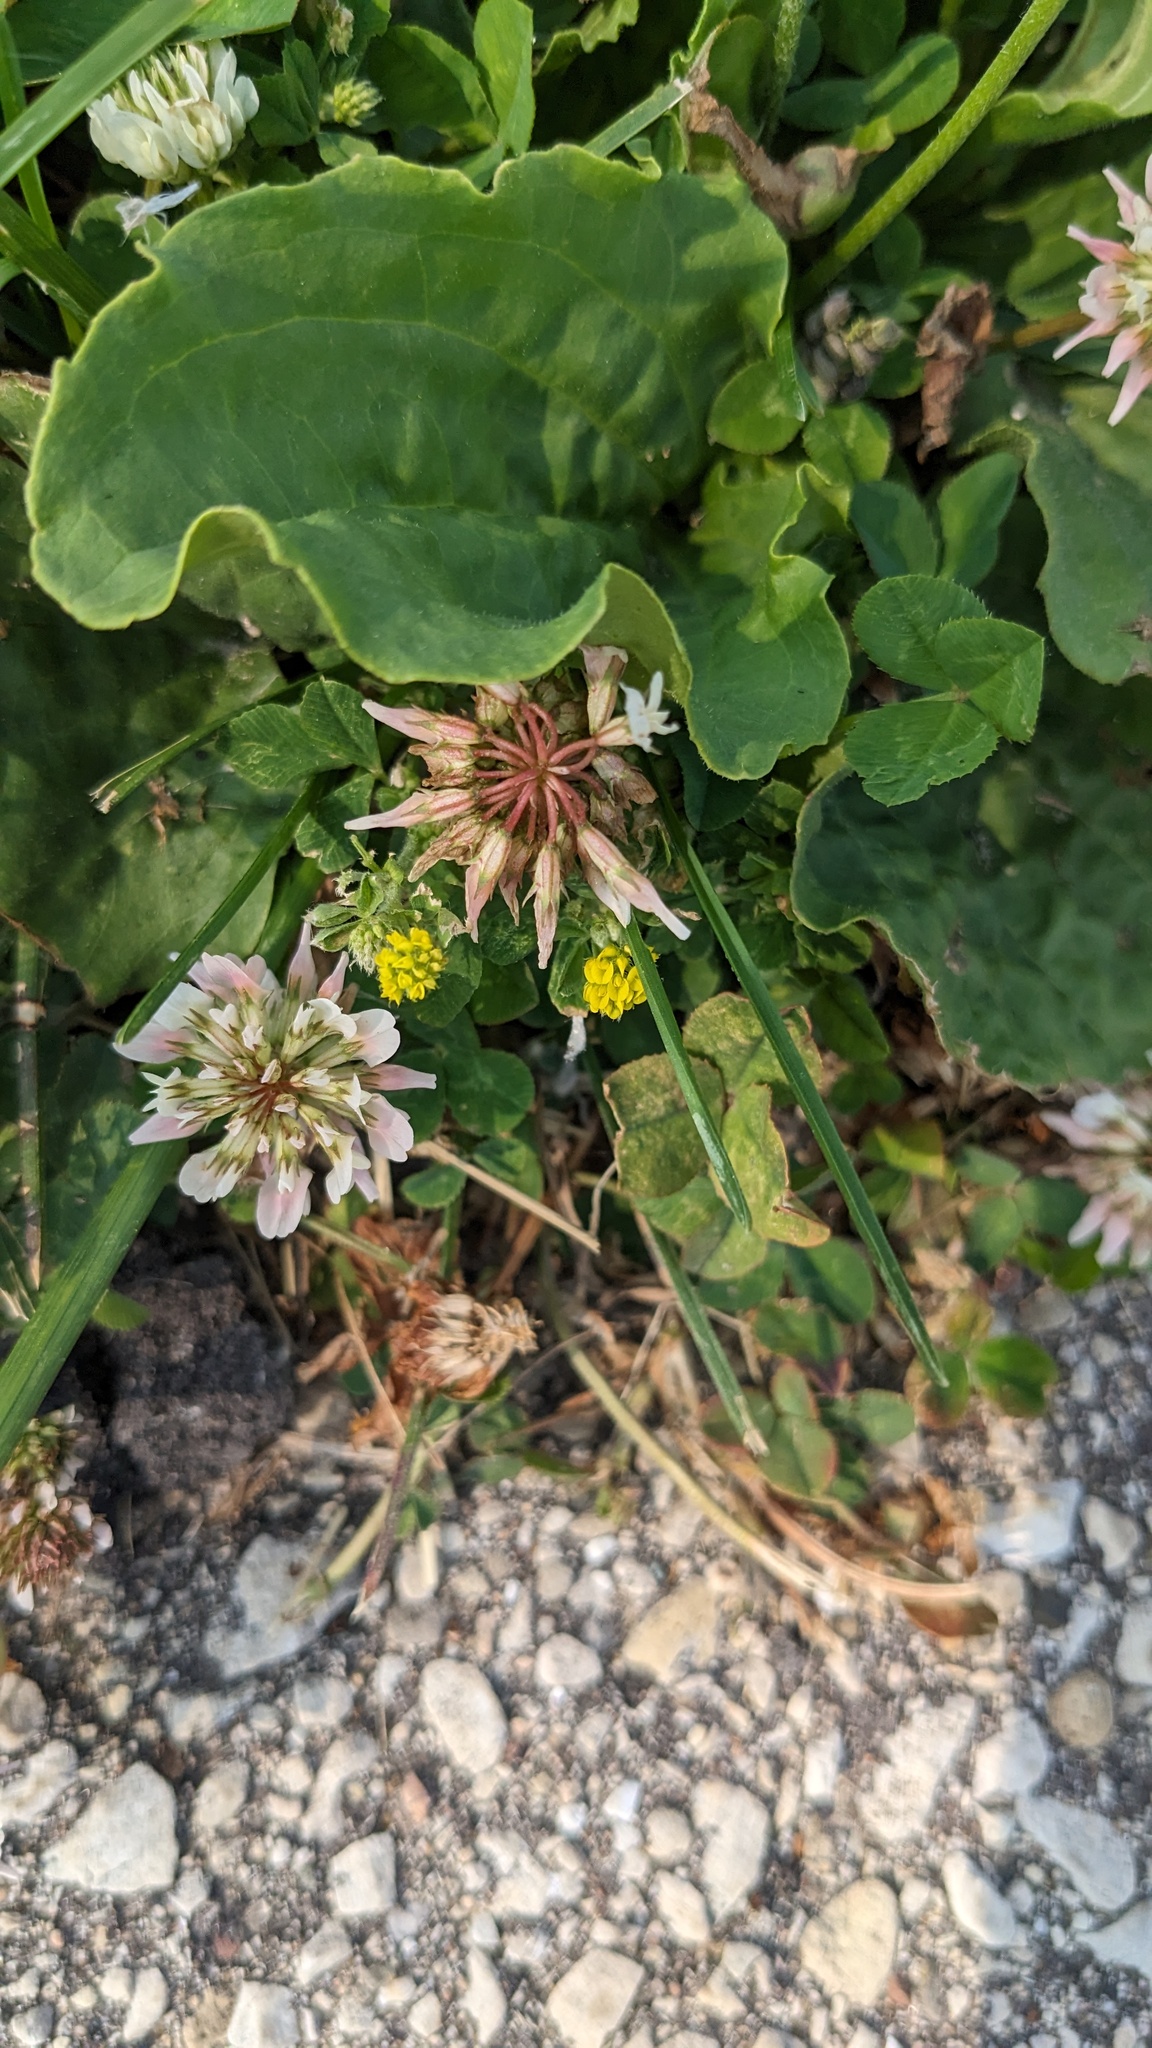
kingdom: Plantae
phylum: Tracheophyta
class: Magnoliopsida
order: Fabales
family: Fabaceae
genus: Trifolium
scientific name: Trifolium repens
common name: White clover
